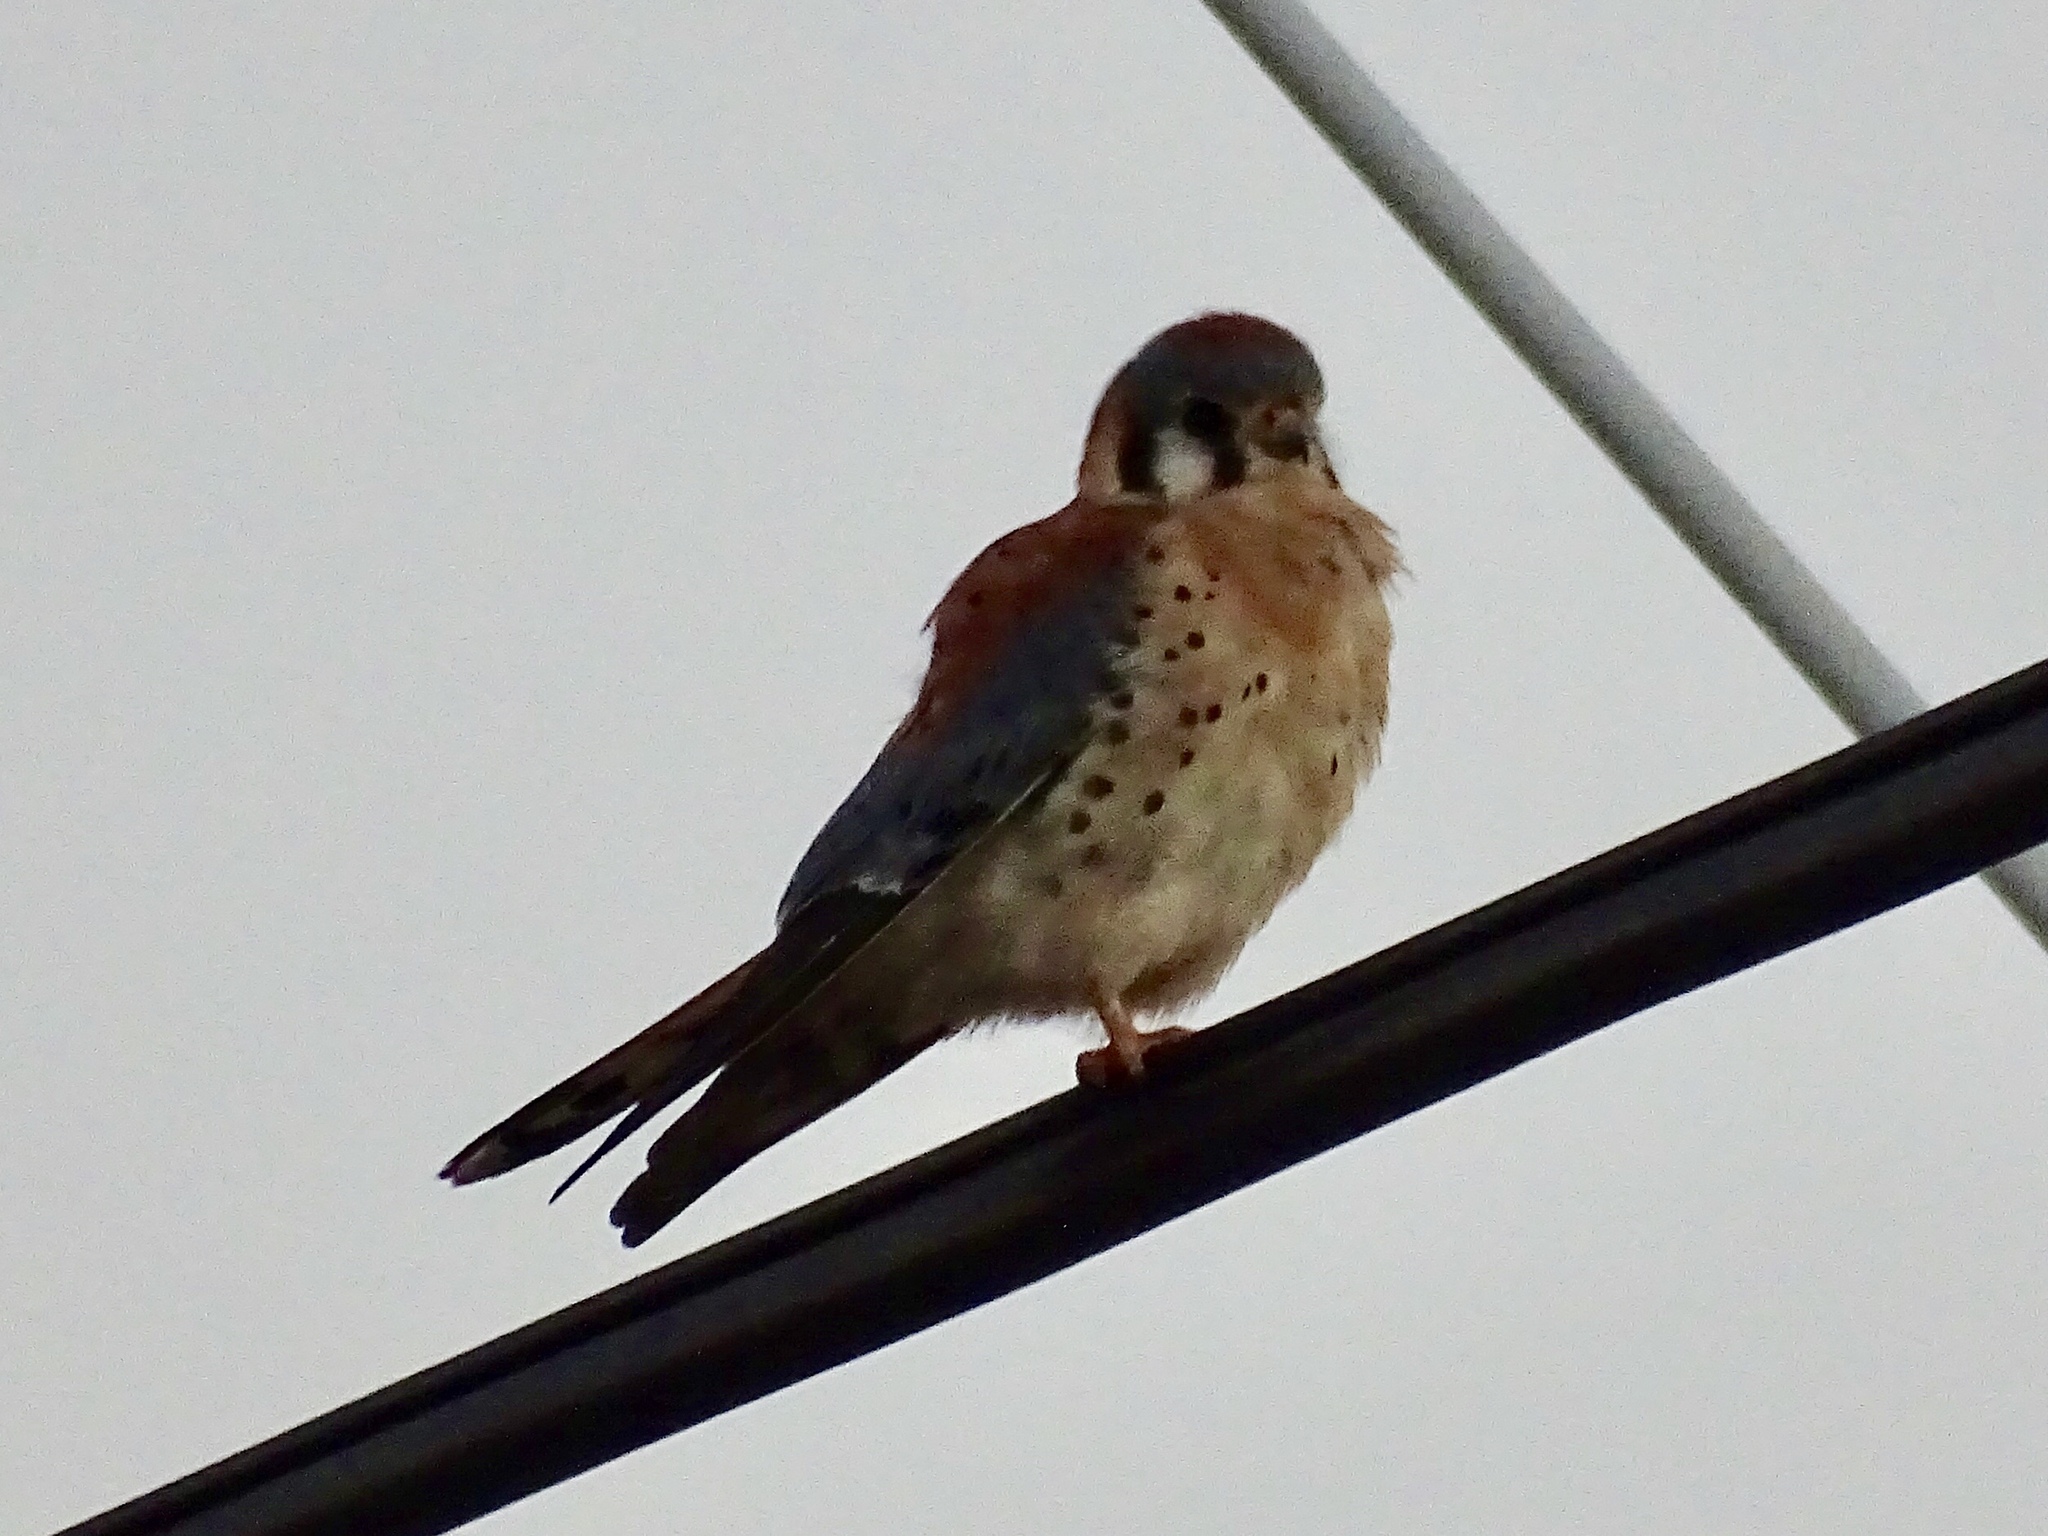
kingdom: Animalia
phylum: Chordata
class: Aves
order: Falconiformes
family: Falconidae
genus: Falco
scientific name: Falco sparverius
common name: American kestrel
